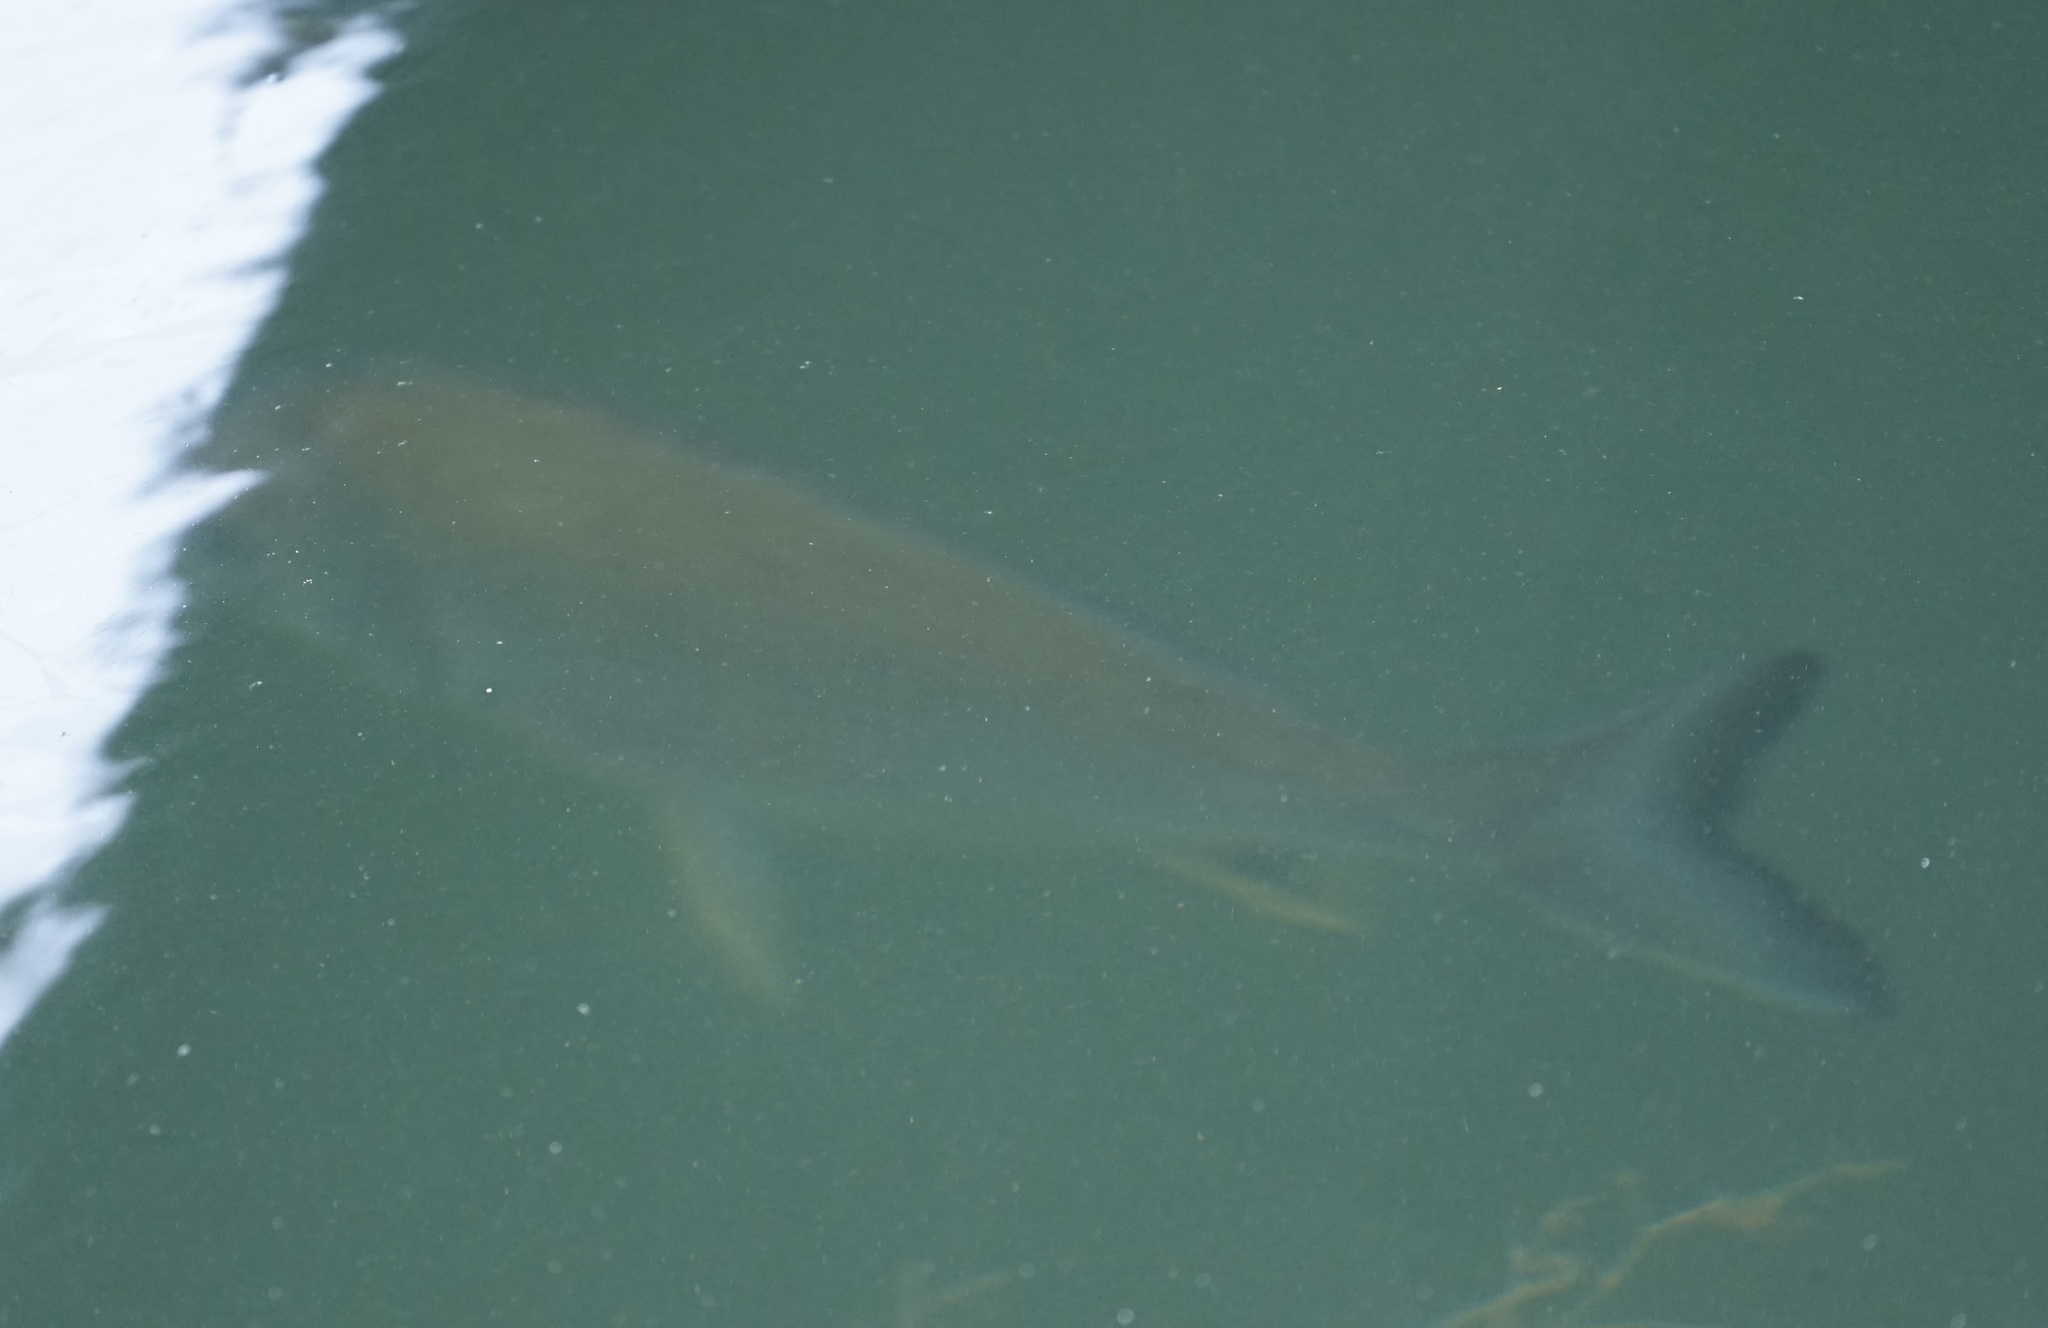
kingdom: Animalia
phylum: Chordata
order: Perciformes
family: Sparidae
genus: Acanthopagrus
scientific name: Acanthopagrus australis
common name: Surf bream
